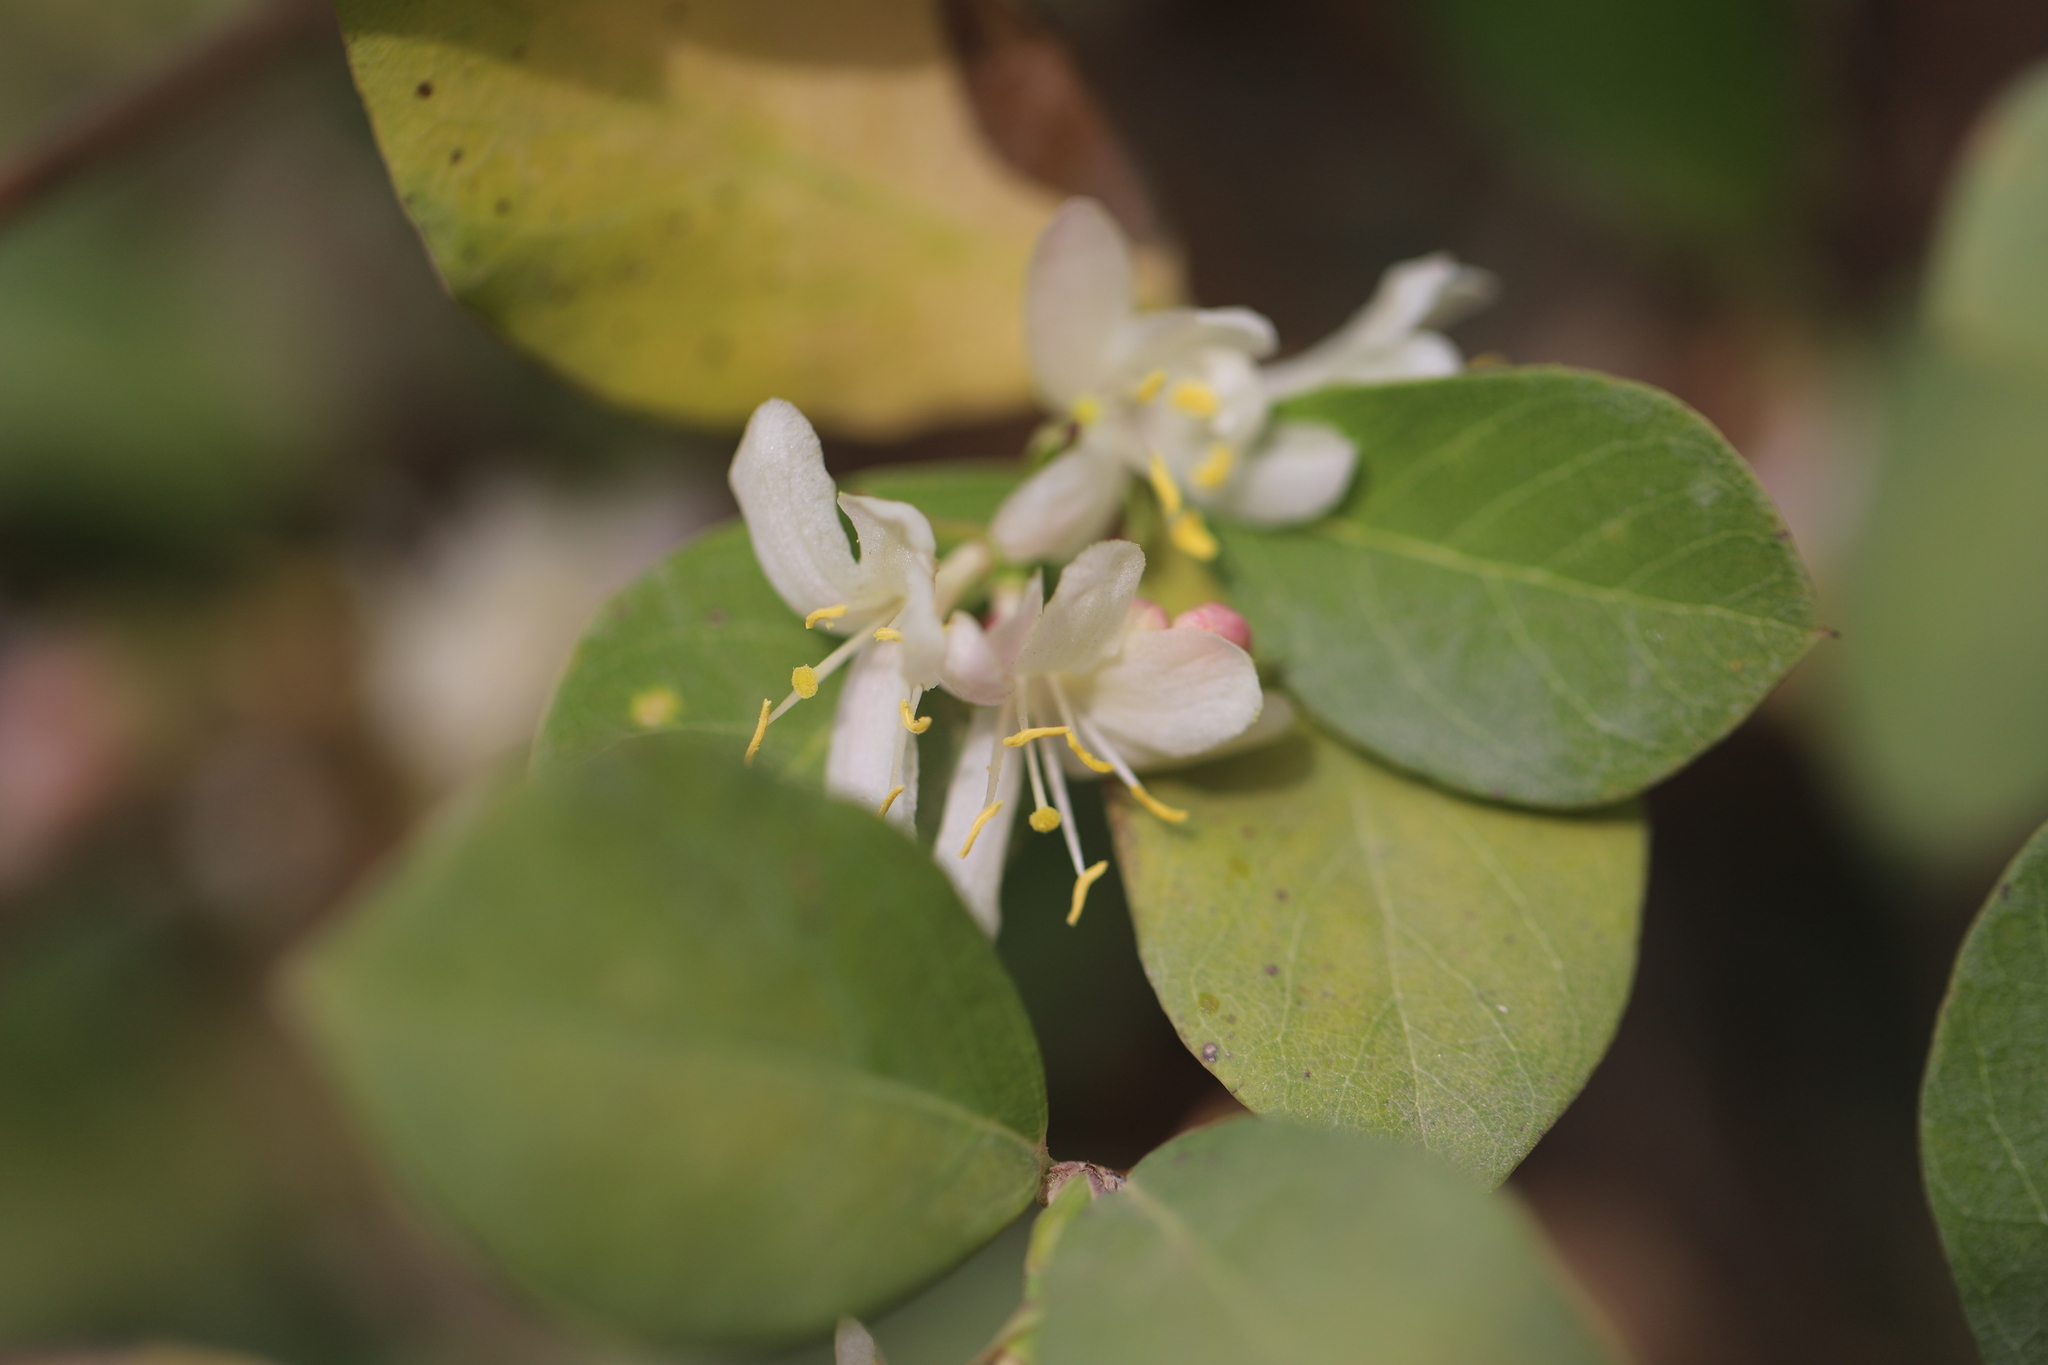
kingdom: Plantae
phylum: Tracheophyta
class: Magnoliopsida
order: Dipsacales
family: Caprifoliaceae
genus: Lonicera
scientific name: Lonicera pyrenaica
